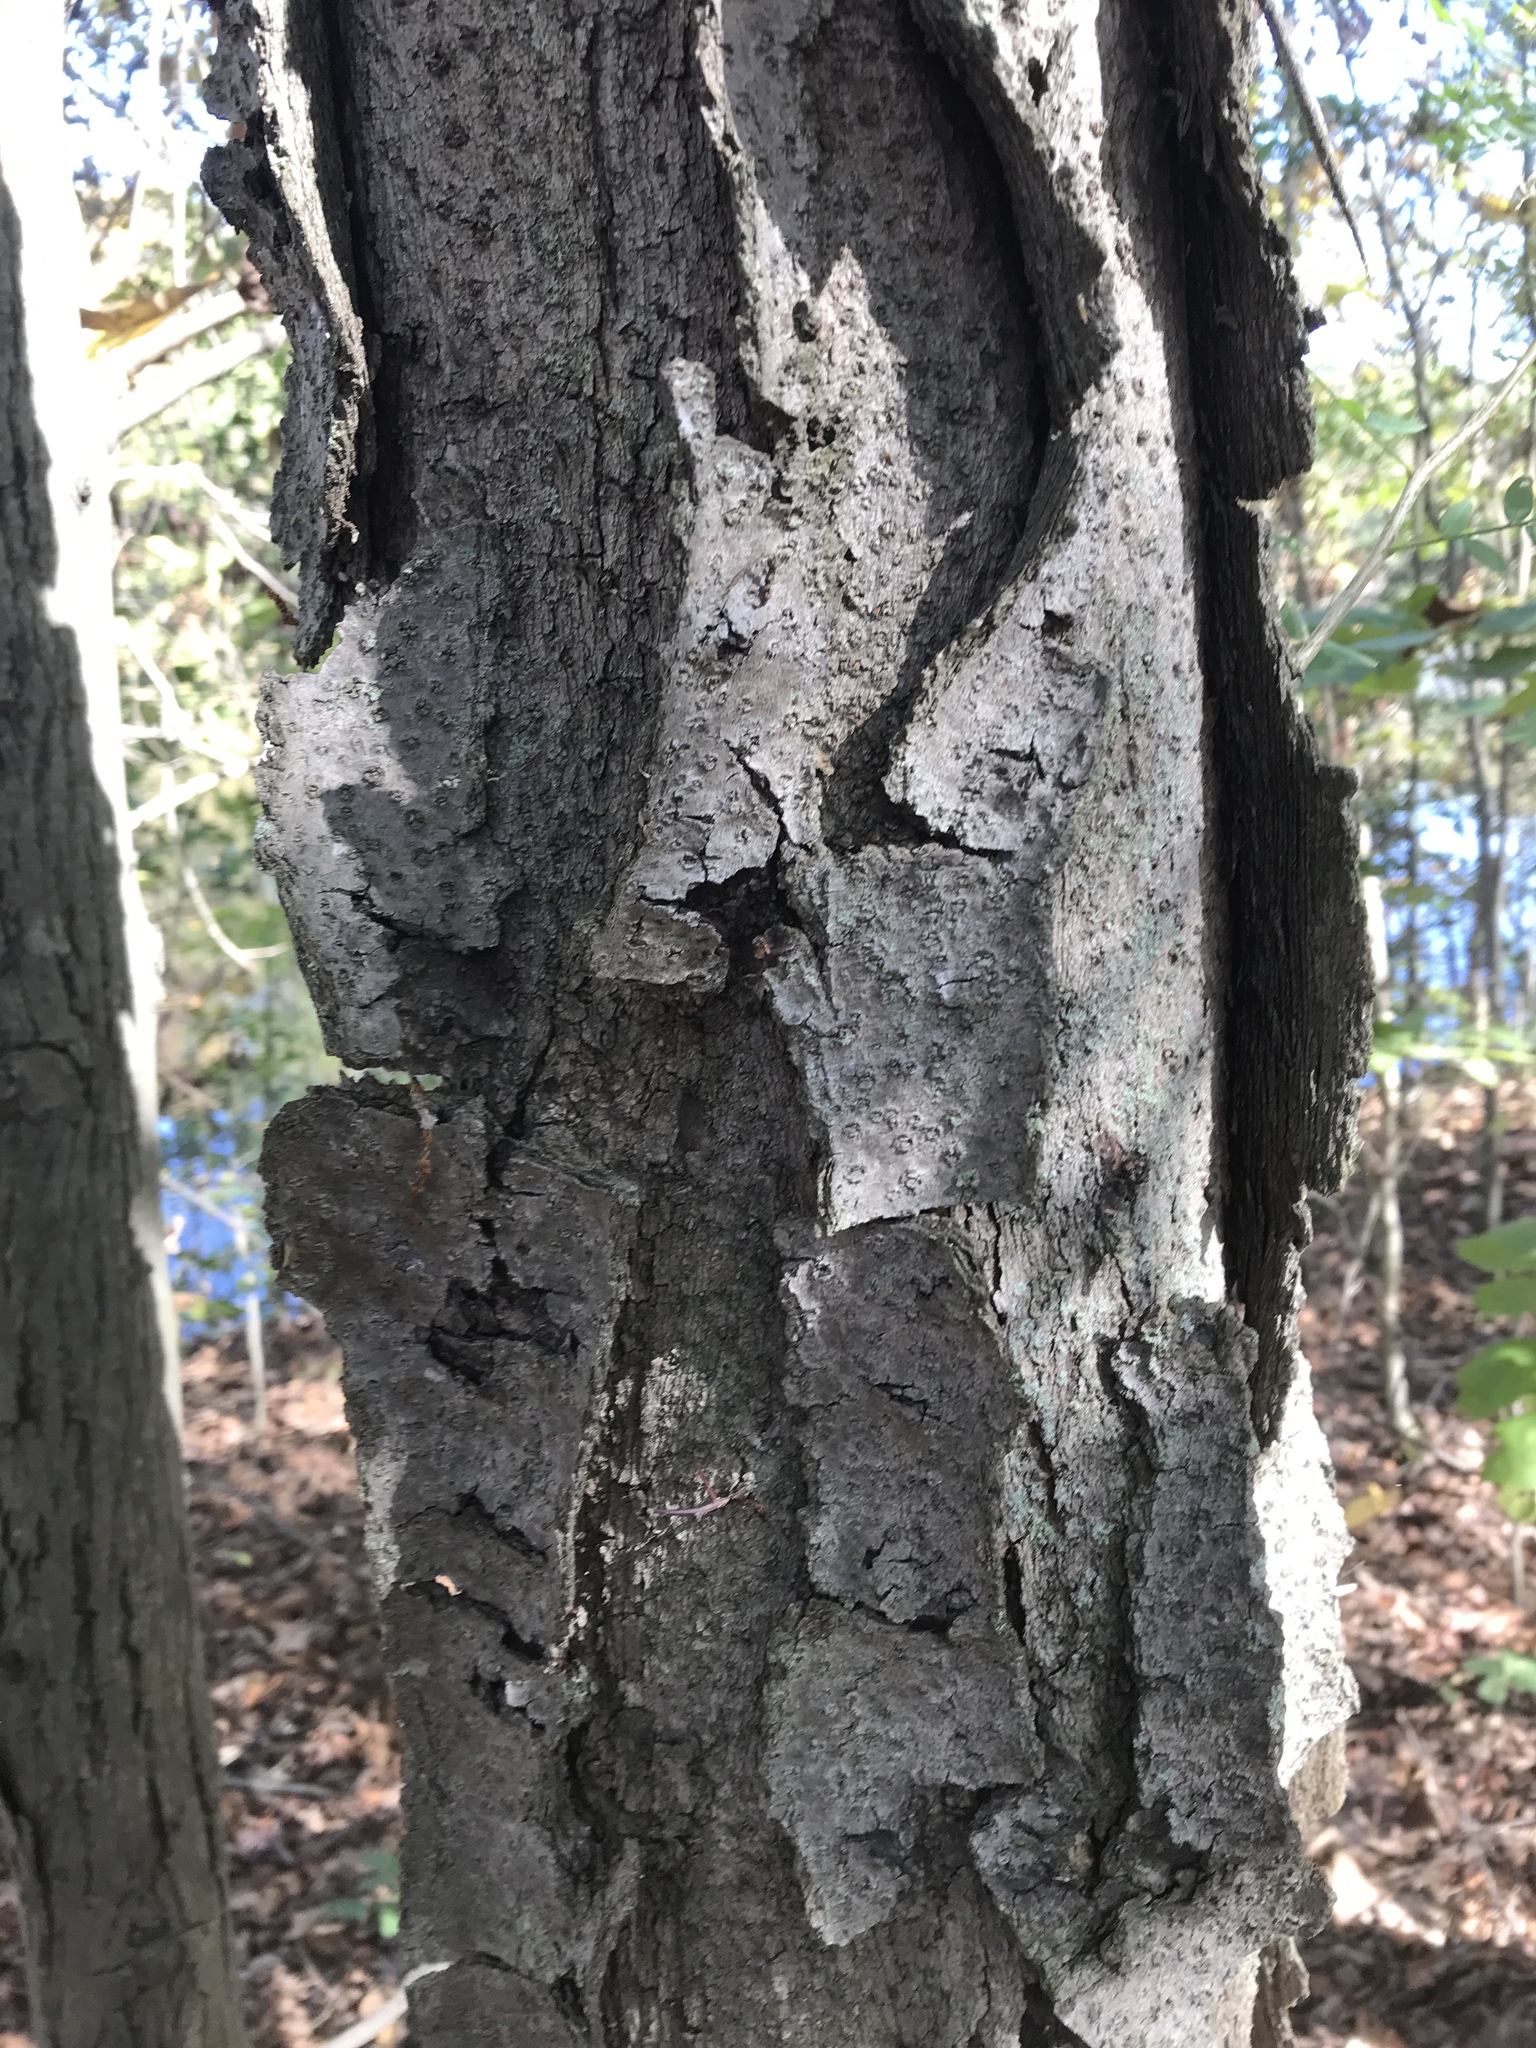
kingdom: Plantae
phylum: Tracheophyta
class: Magnoliopsida
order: Fabales
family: Fabaceae
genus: Gleditsia
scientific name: Gleditsia triacanthos
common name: Common honeylocust
